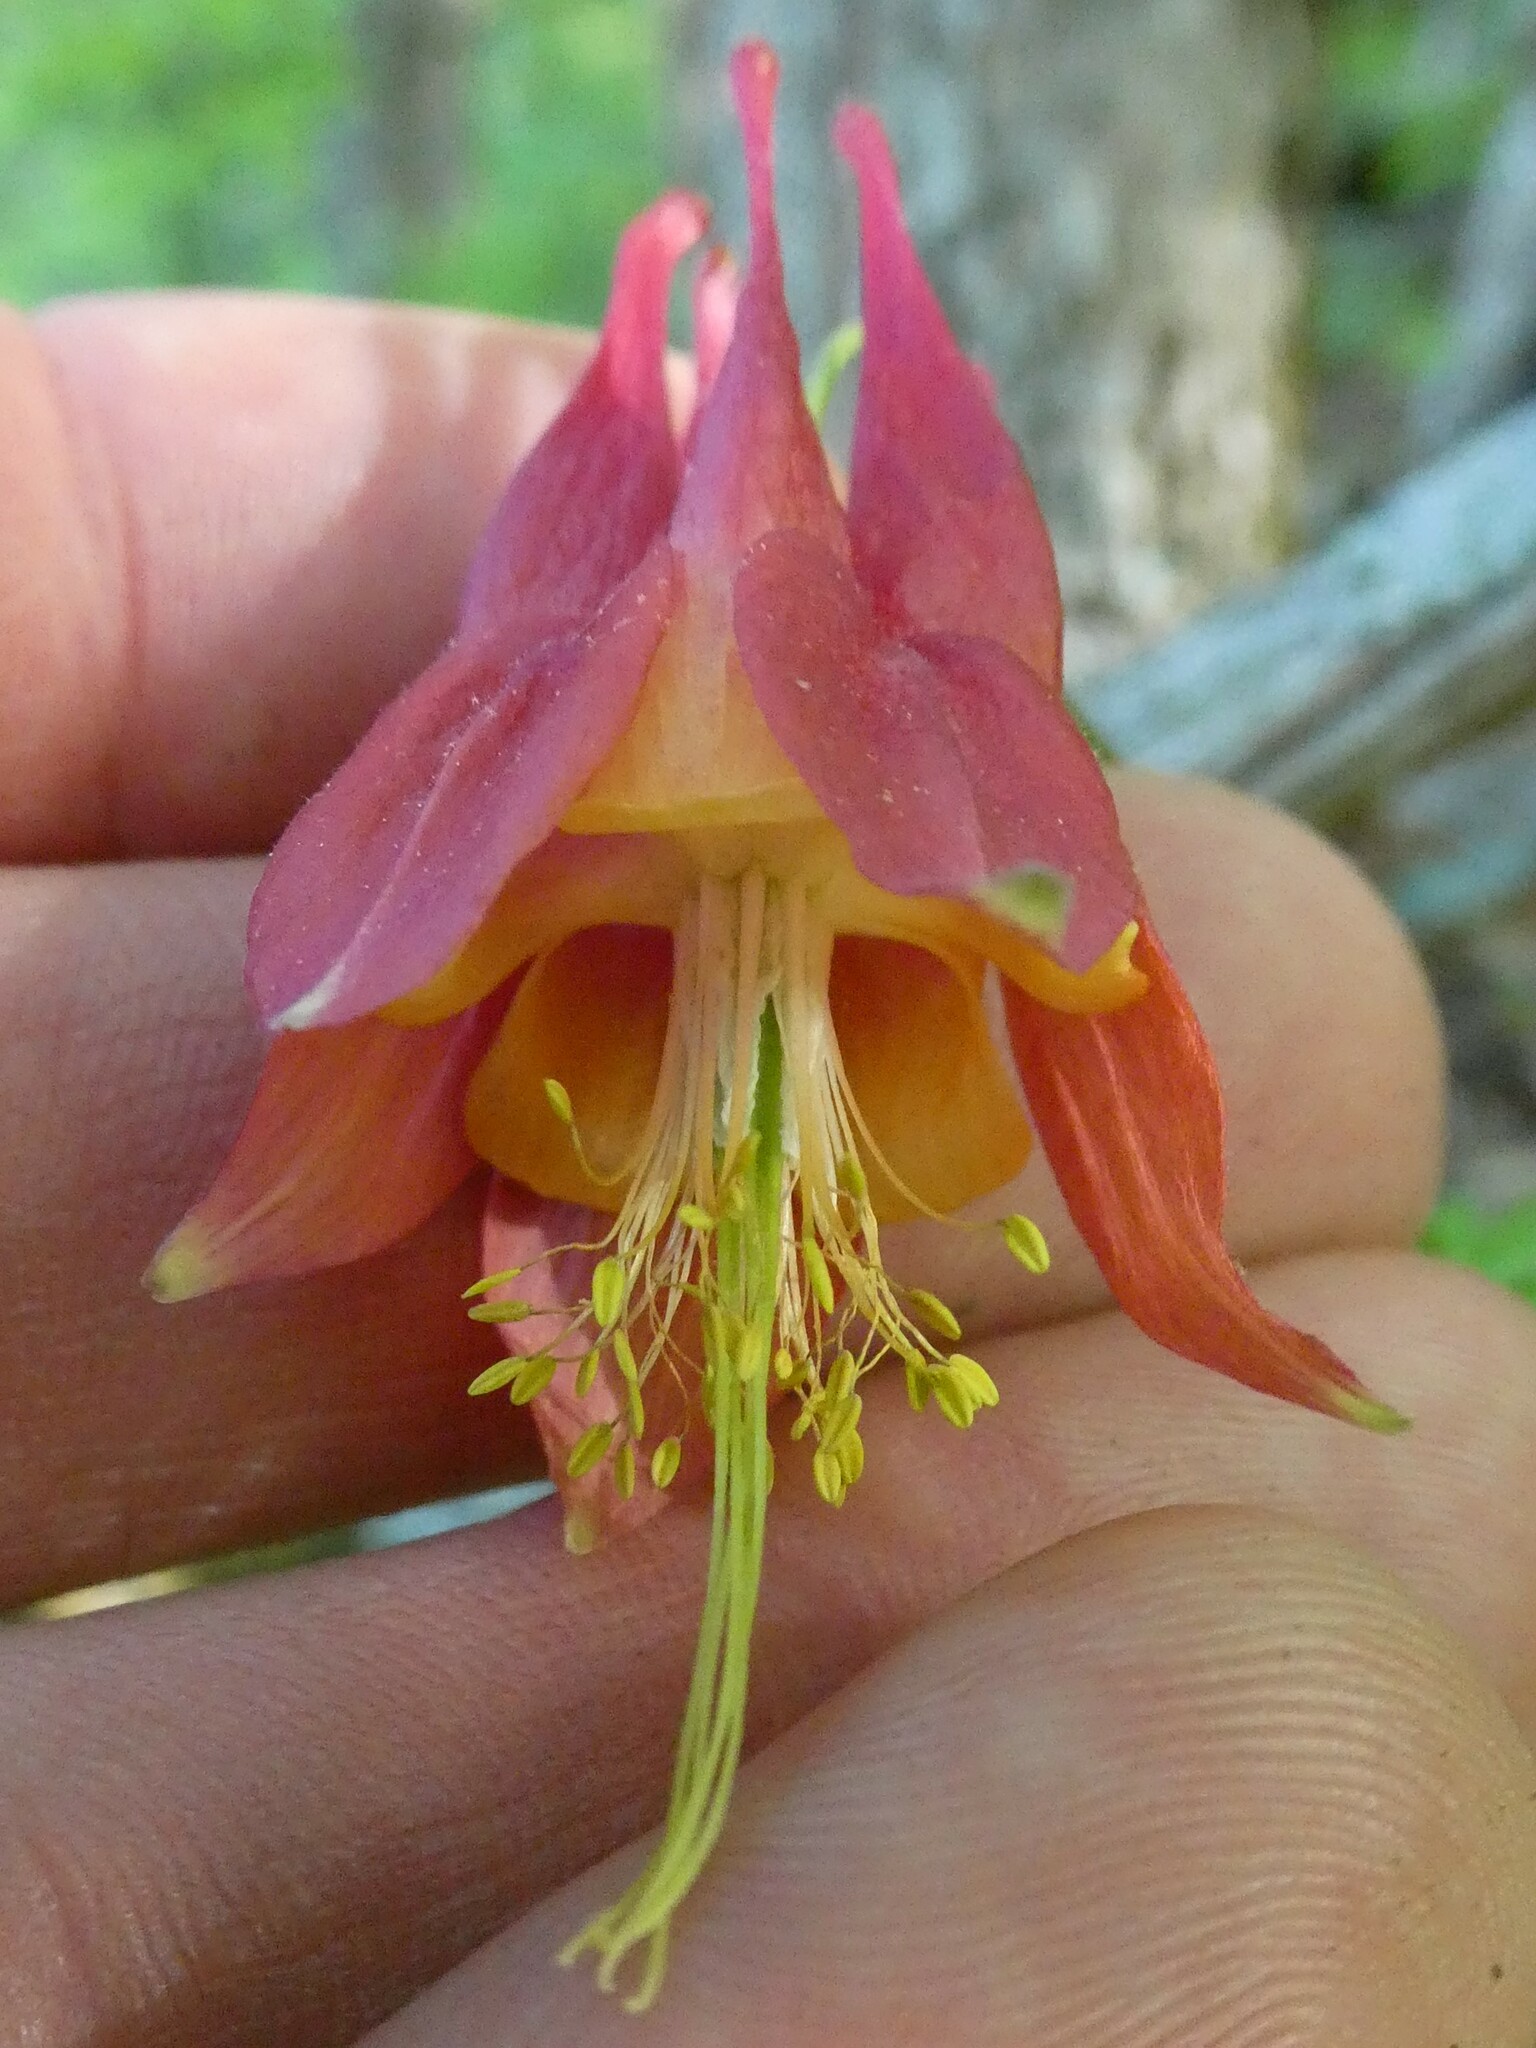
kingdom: Plantae
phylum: Tracheophyta
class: Magnoliopsida
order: Ranunculales
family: Ranunculaceae
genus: Aquilegia
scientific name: Aquilegia canadensis
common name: American columbine
